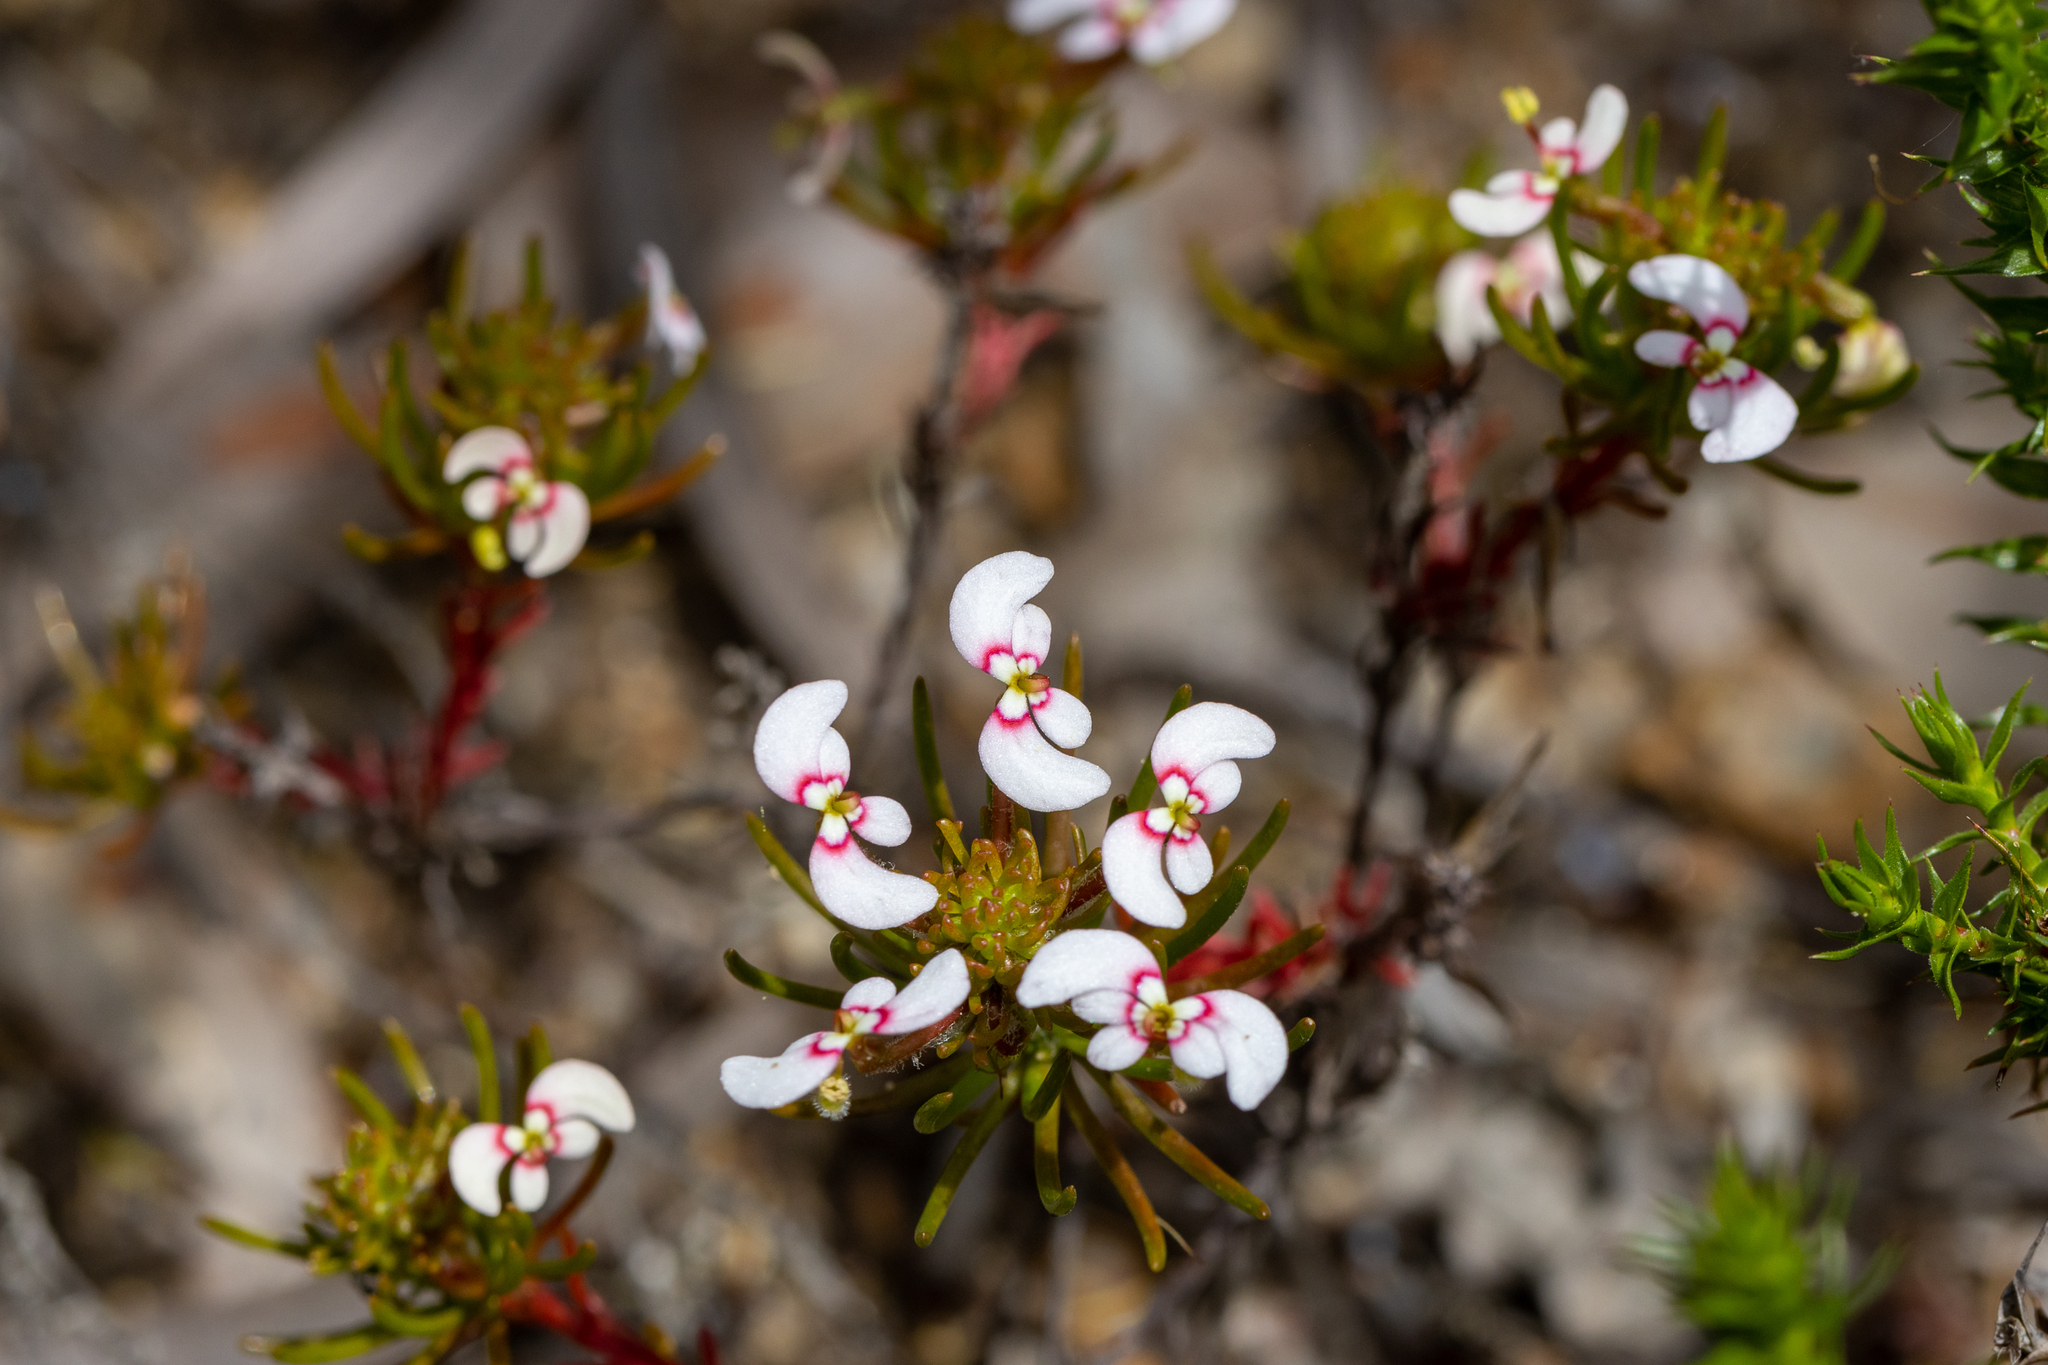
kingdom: Plantae
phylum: Tracheophyta
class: Magnoliopsida
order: Asterales
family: Stylidiaceae
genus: Stylidium
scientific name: Stylidium breviscapum
